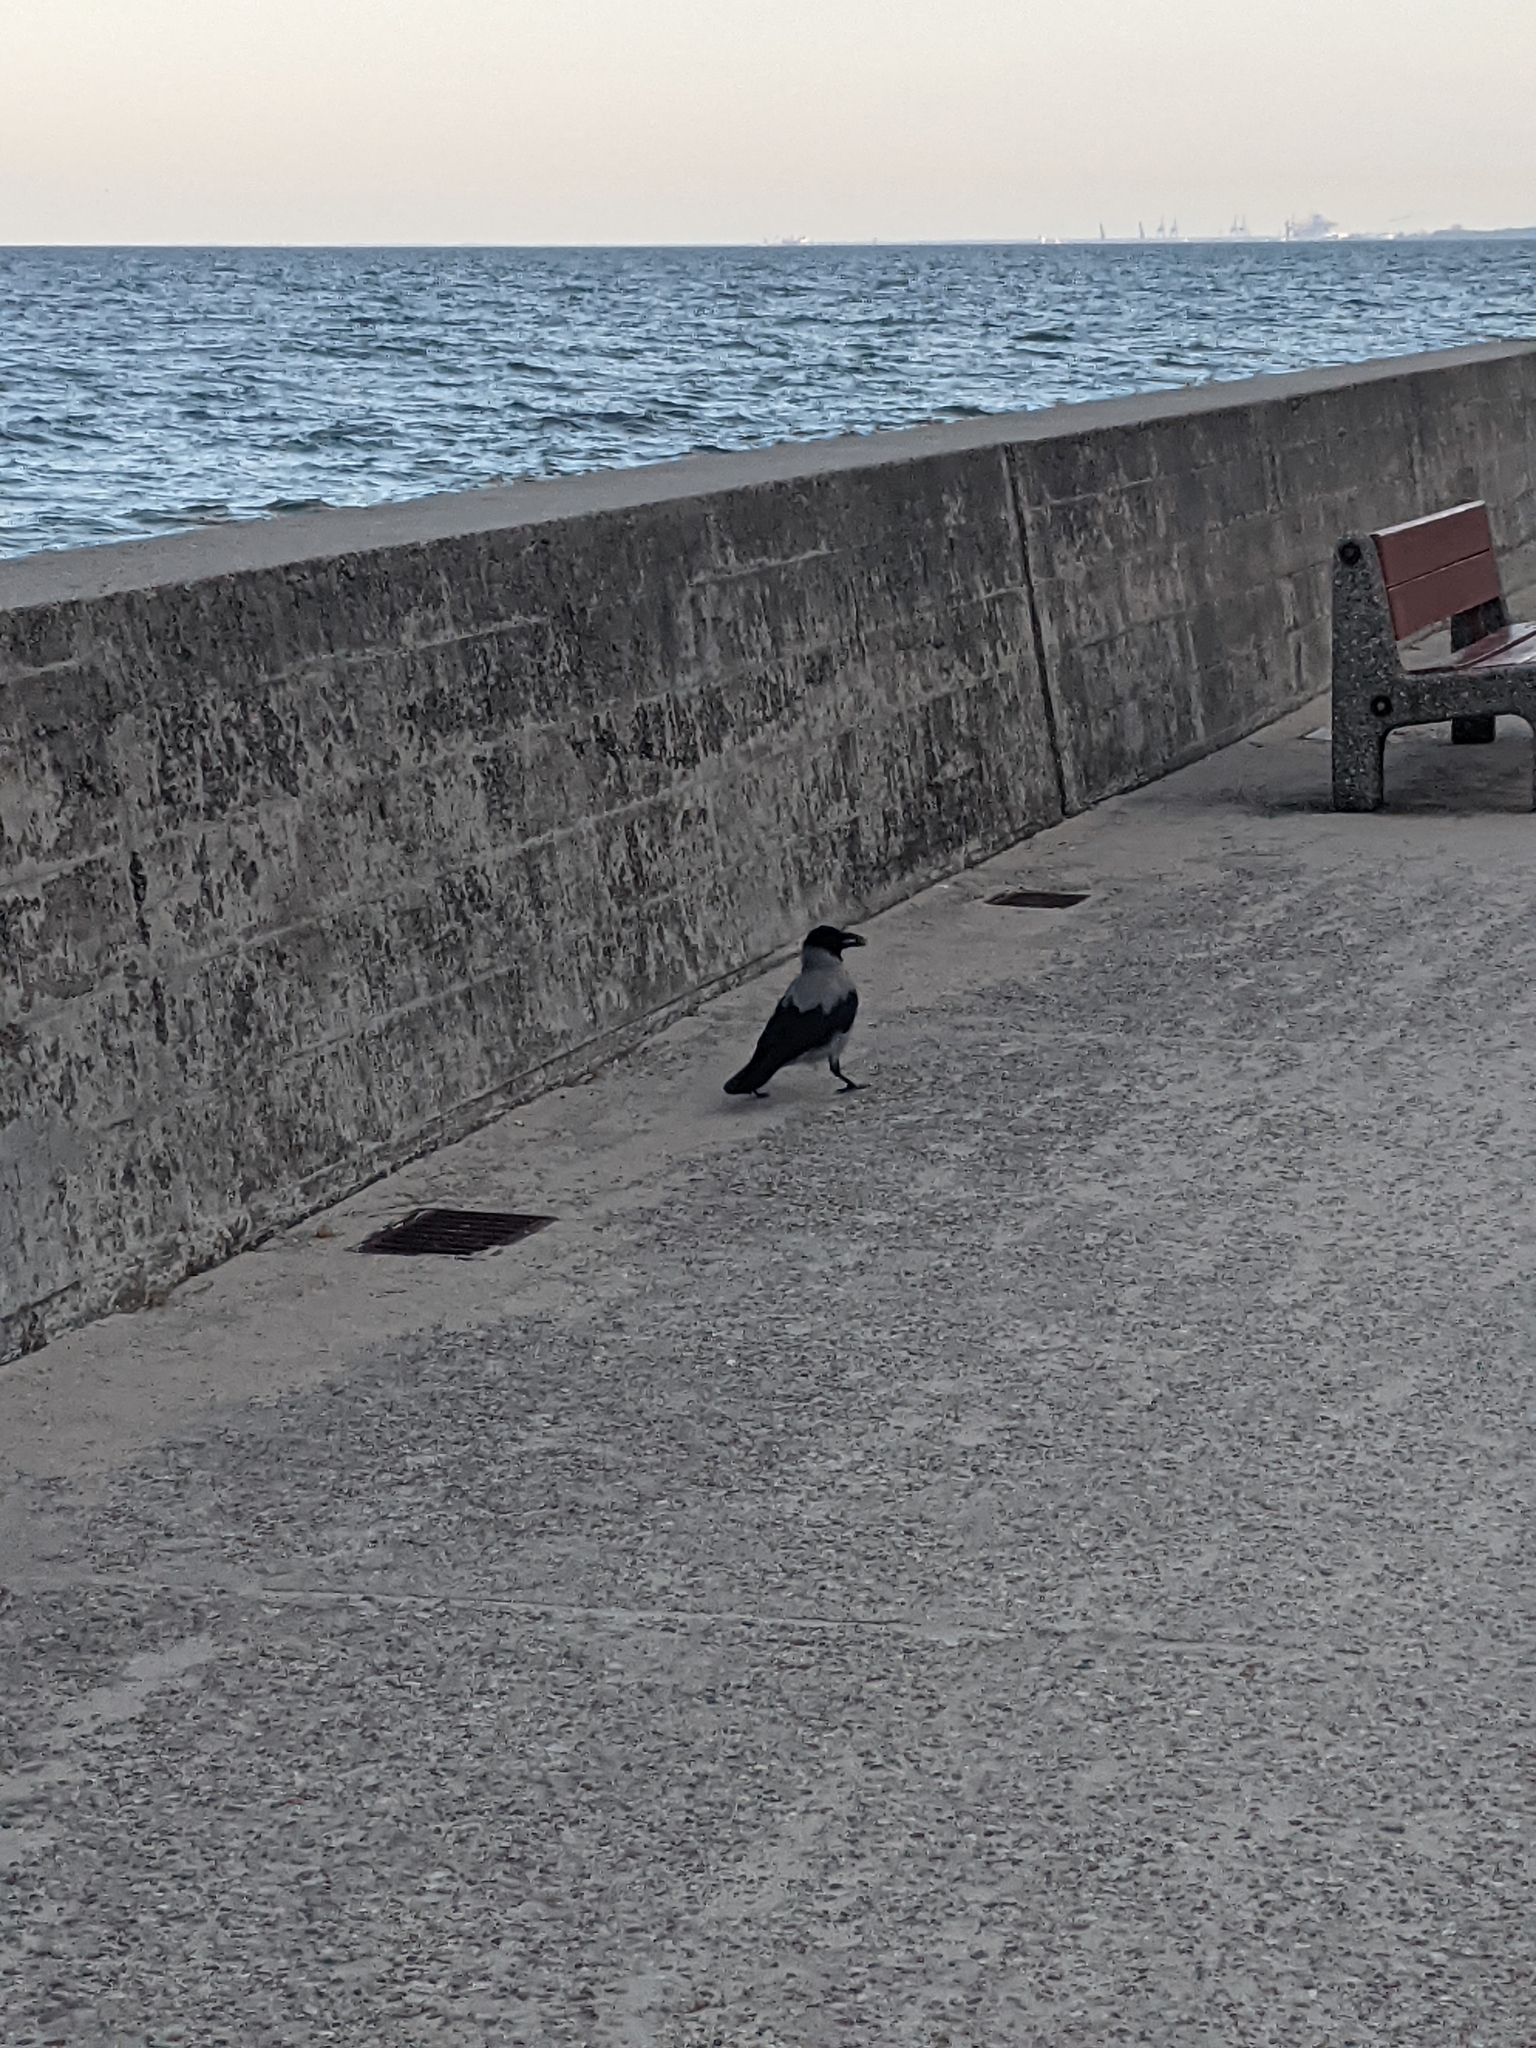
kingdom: Animalia
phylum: Chordata
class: Aves
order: Passeriformes
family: Corvidae
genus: Corvus
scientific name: Corvus cornix
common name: Hooded crow
